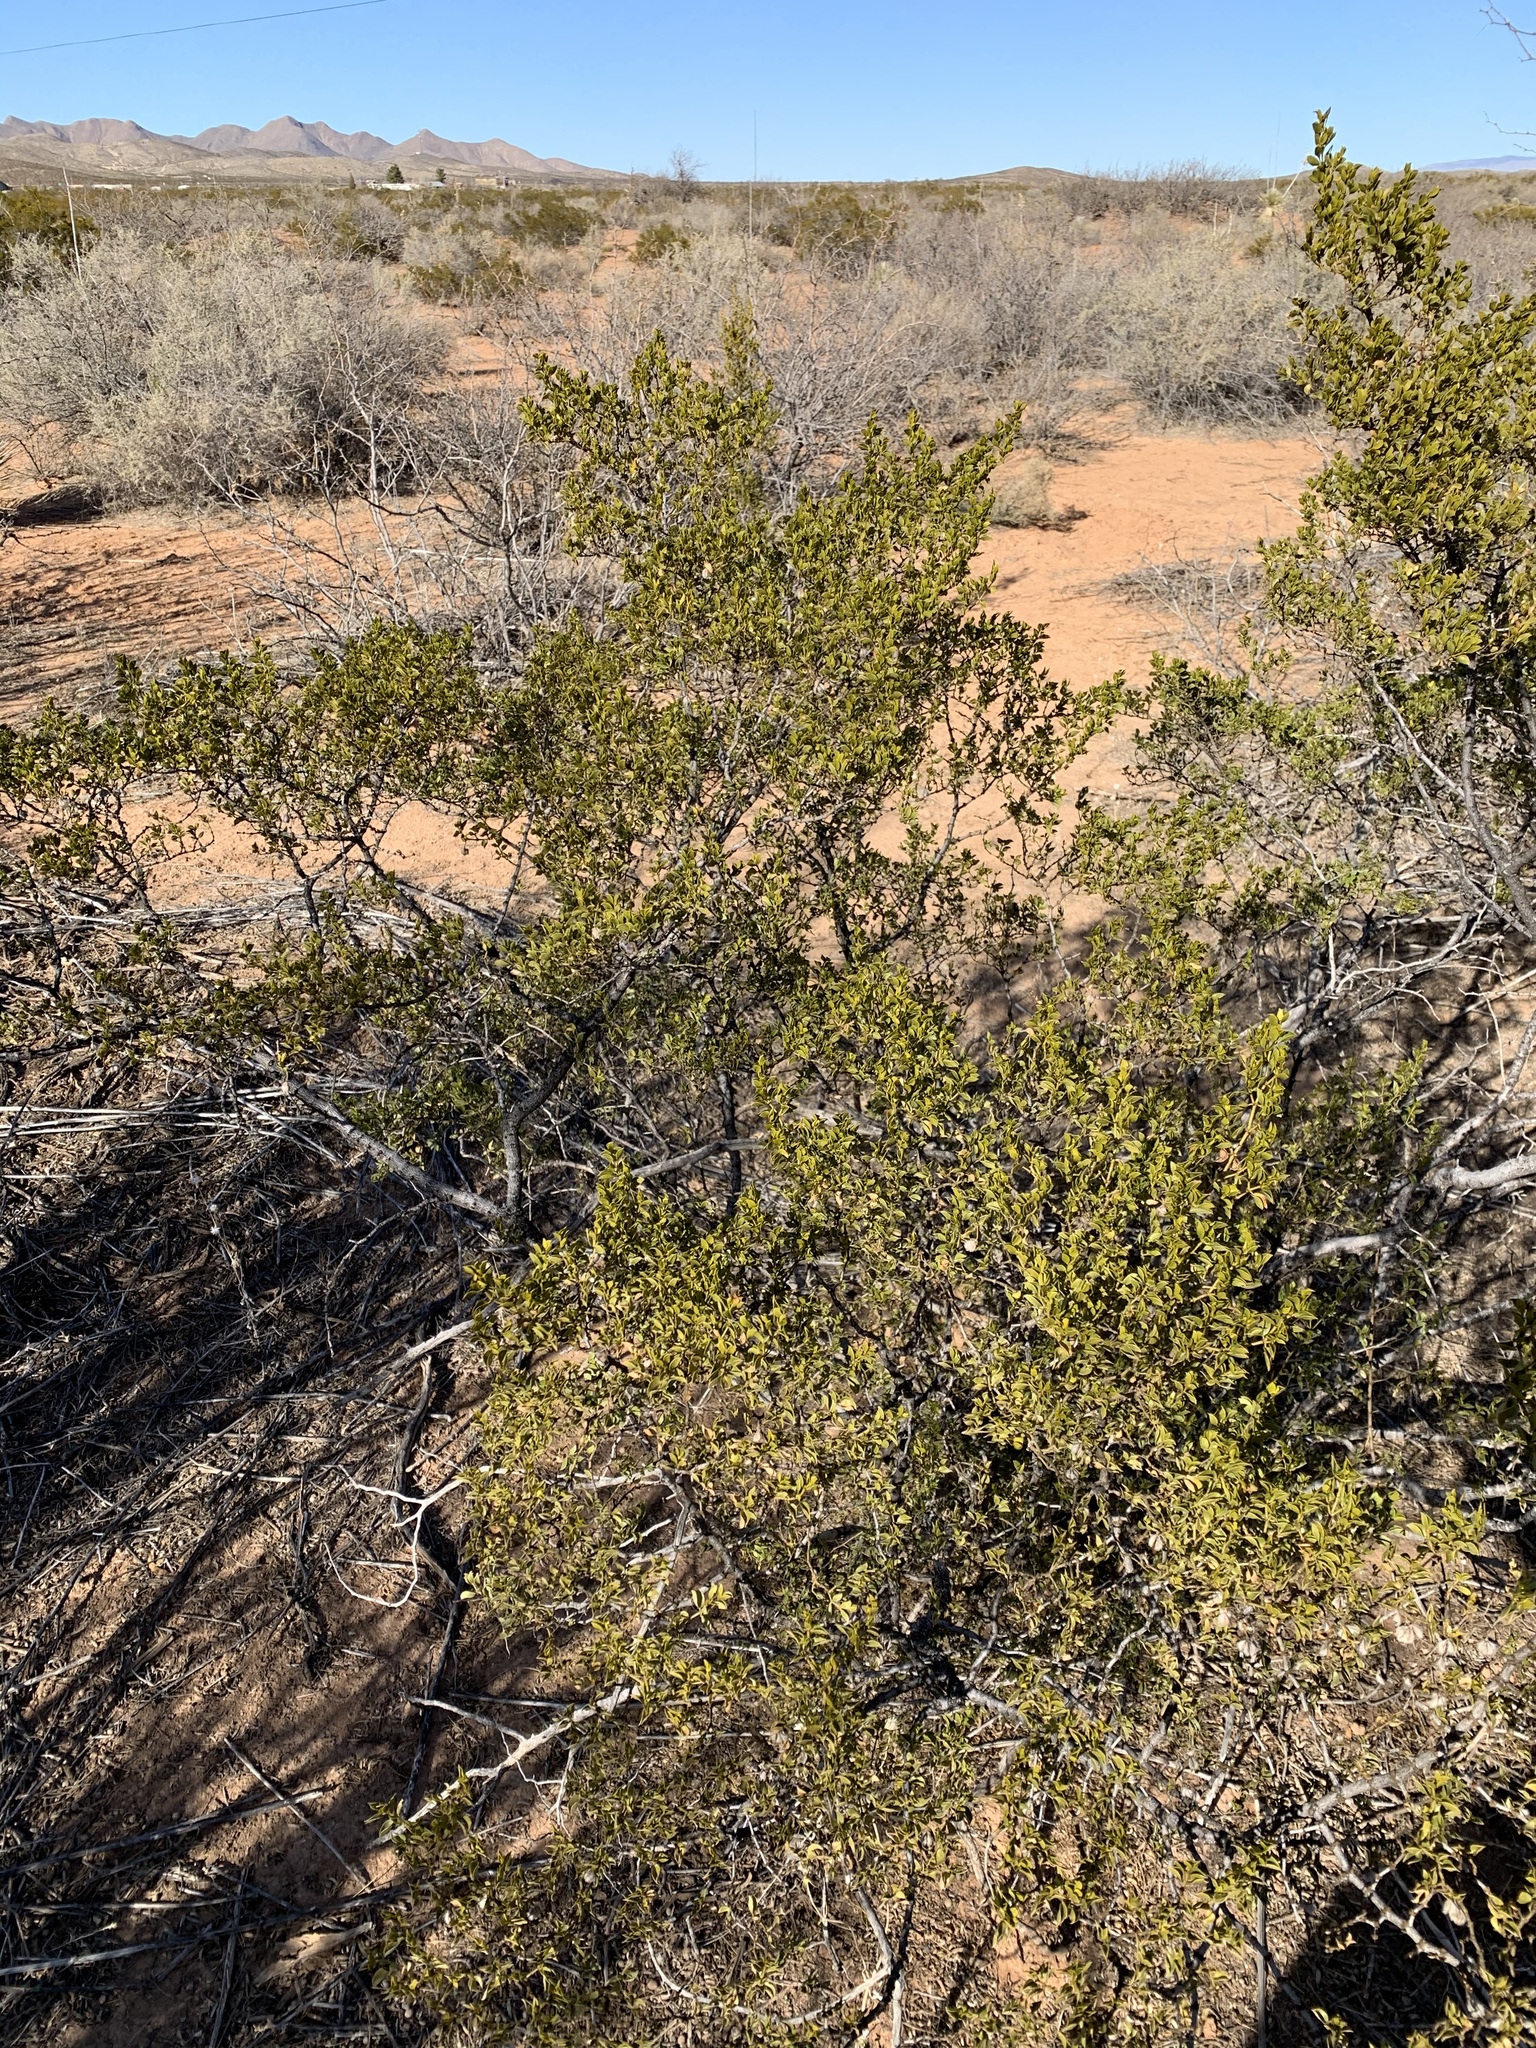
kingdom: Plantae
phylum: Tracheophyta
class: Magnoliopsida
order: Zygophyllales
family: Zygophyllaceae
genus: Larrea
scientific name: Larrea tridentata
